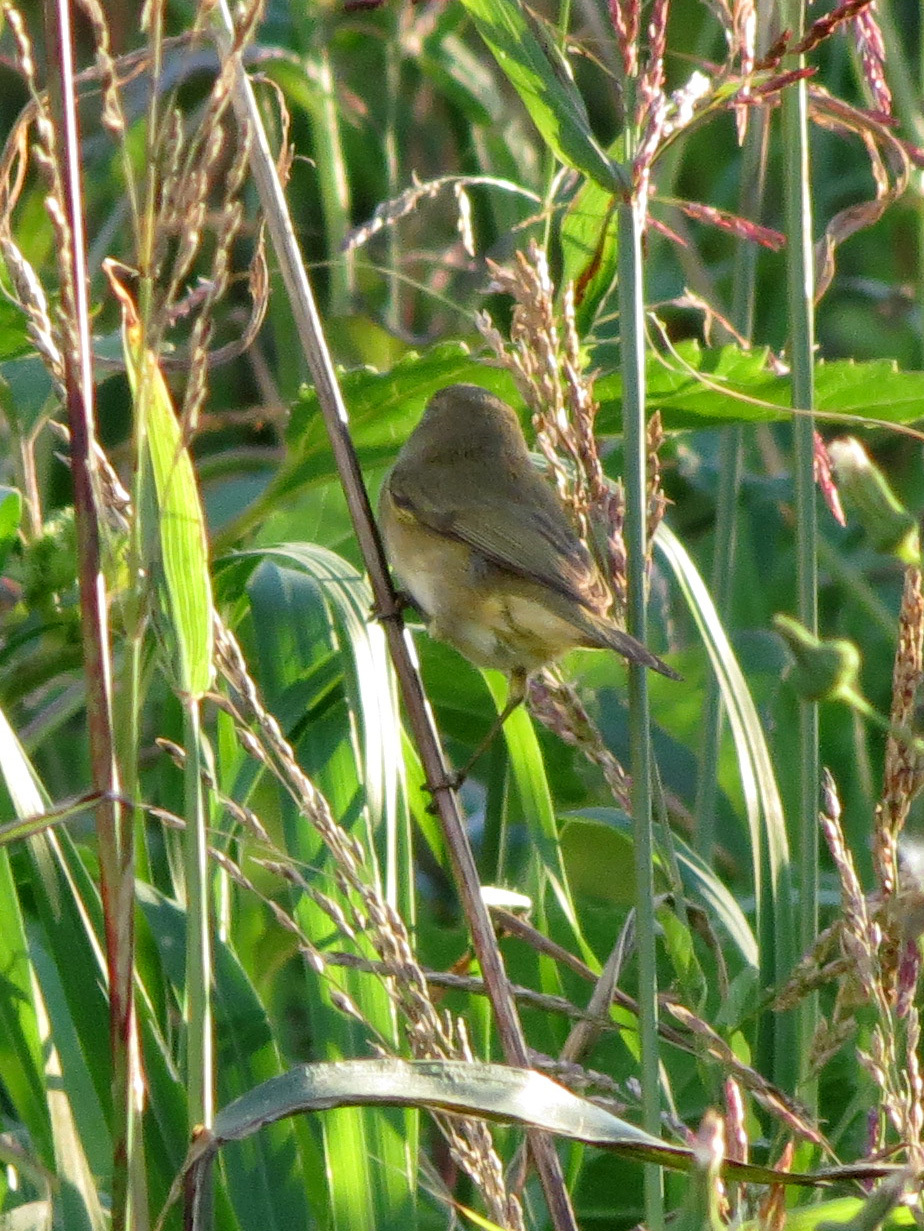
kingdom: Animalia
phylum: Chordata
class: Aves
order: Passeriformes
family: Phylloscopidae
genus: Phylloscopus
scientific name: Phylloscopus collybita
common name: Common chiffchaff
